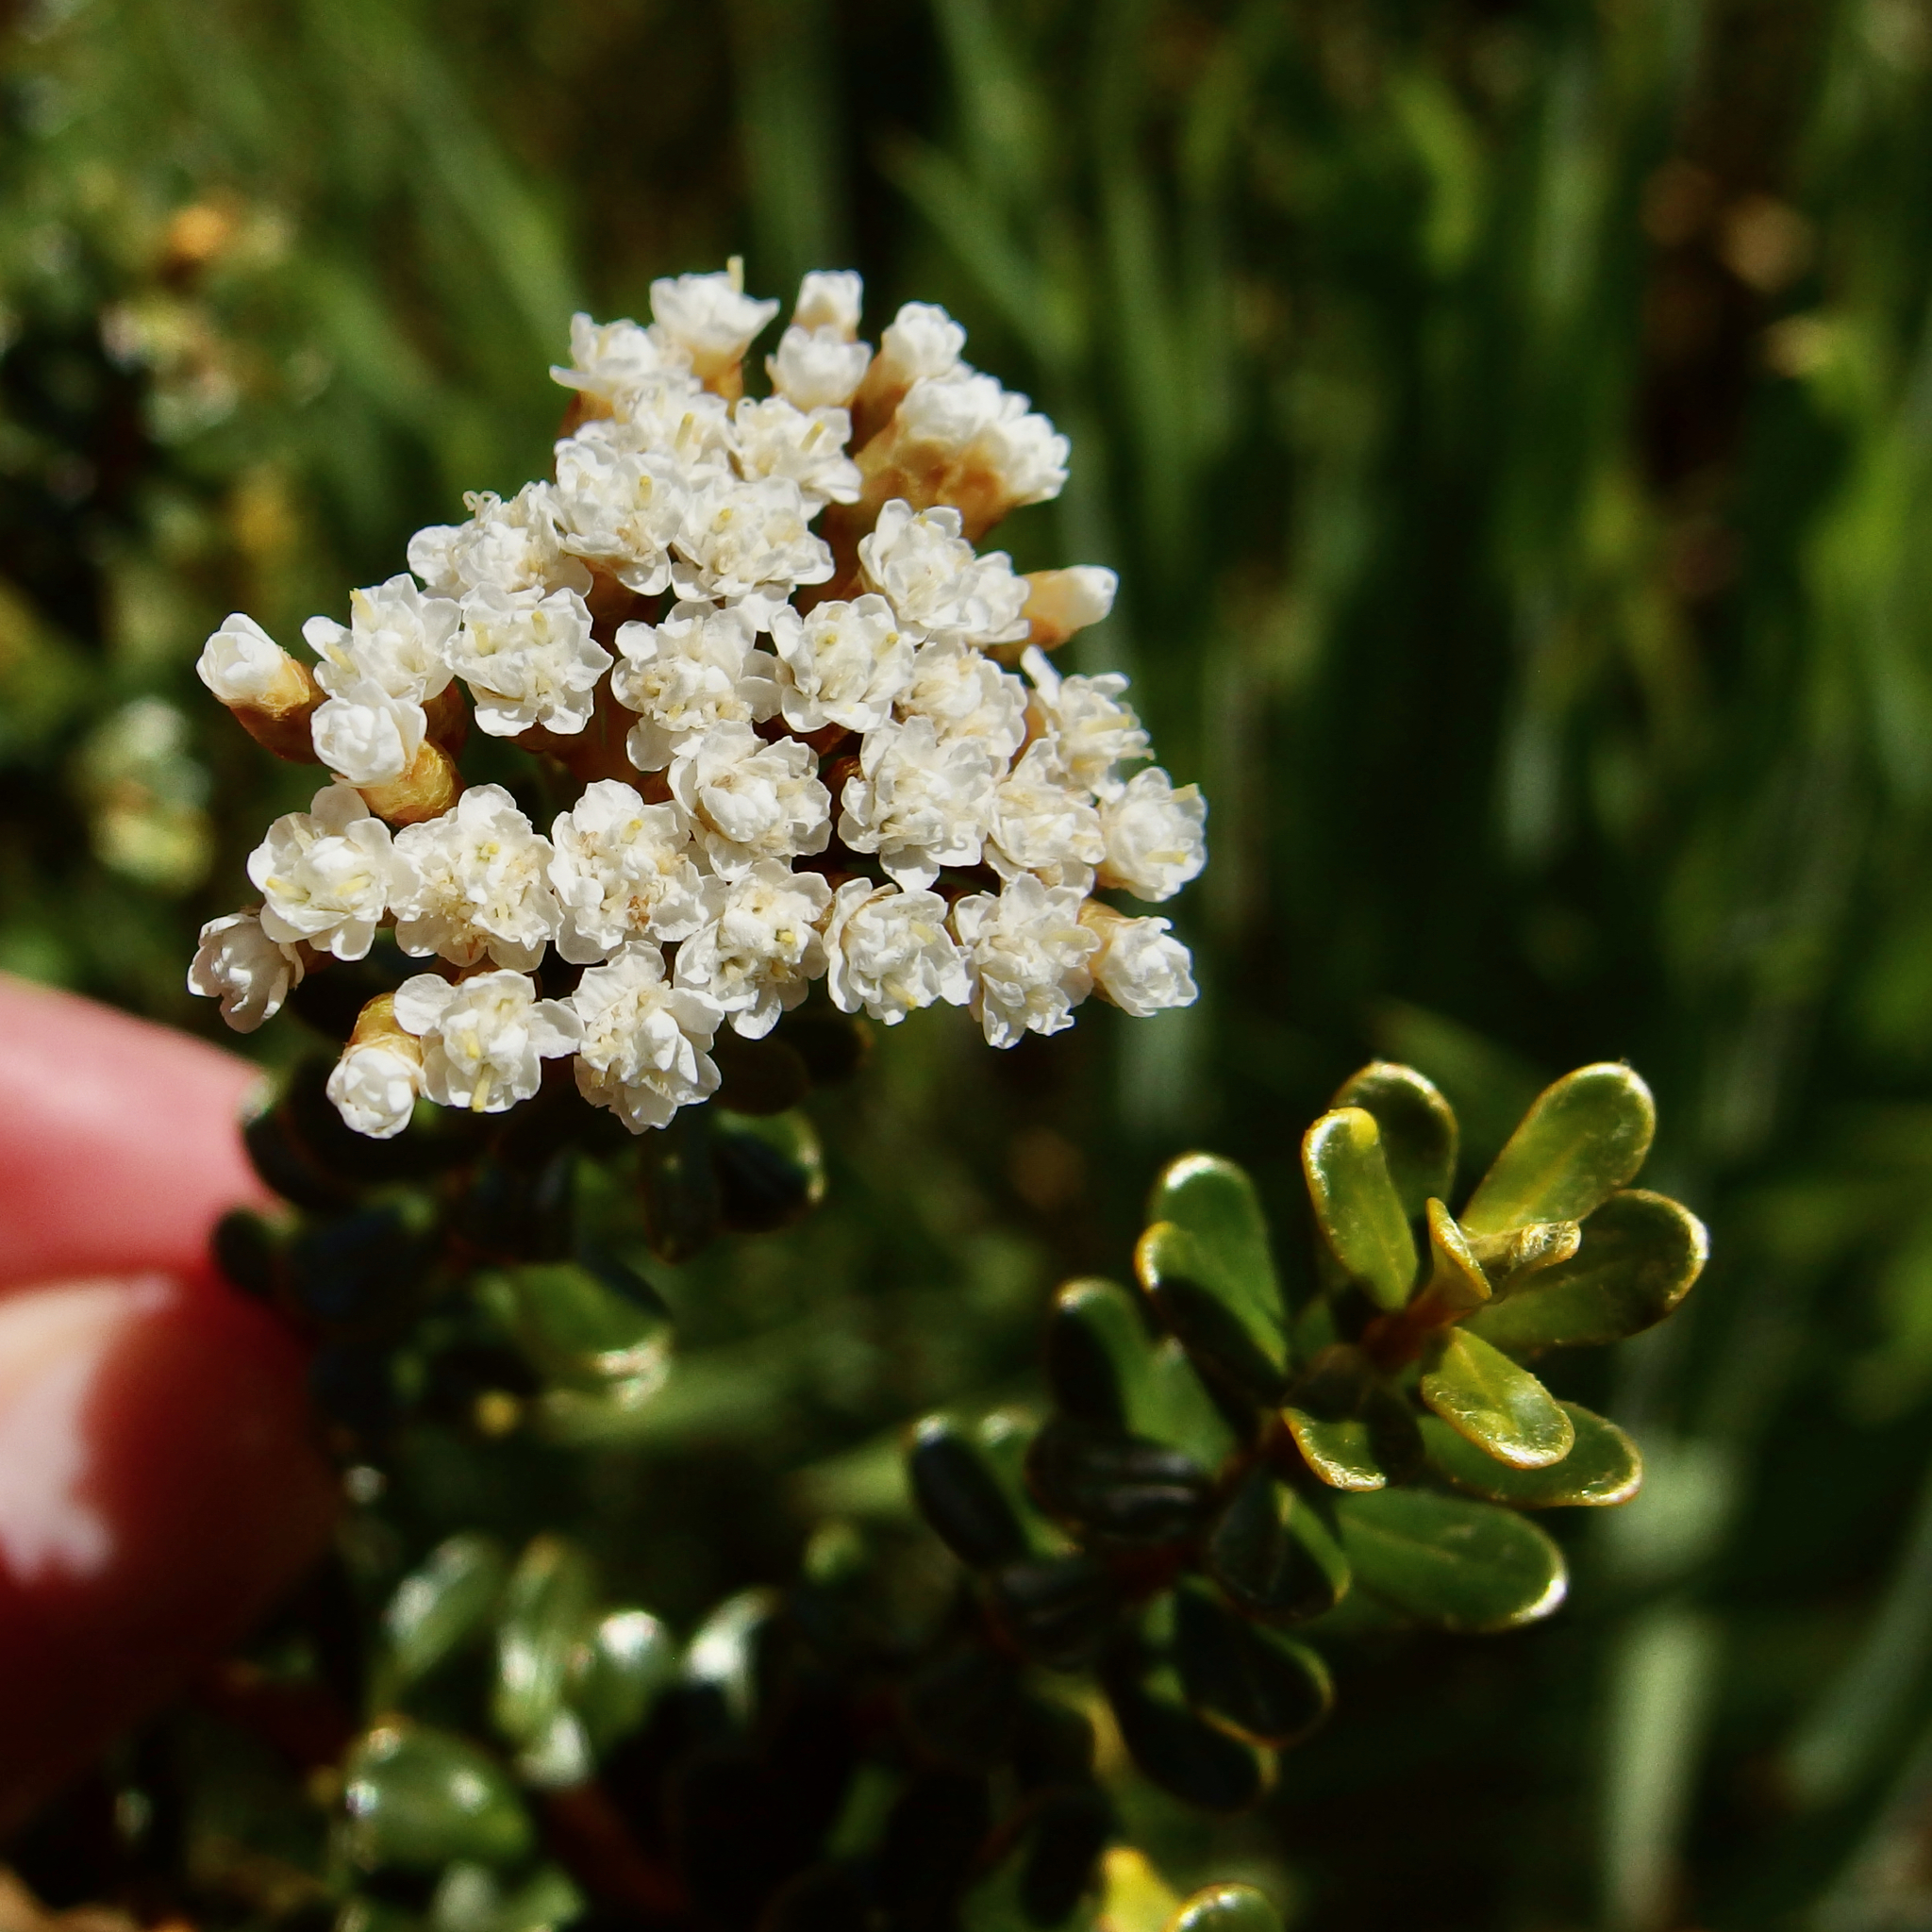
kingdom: Plantae
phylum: Tracheophyta
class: Magnoliopsida
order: Asterales
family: Asteraceae
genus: Ozothamnus
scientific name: Ozothamnus leptophyllus
